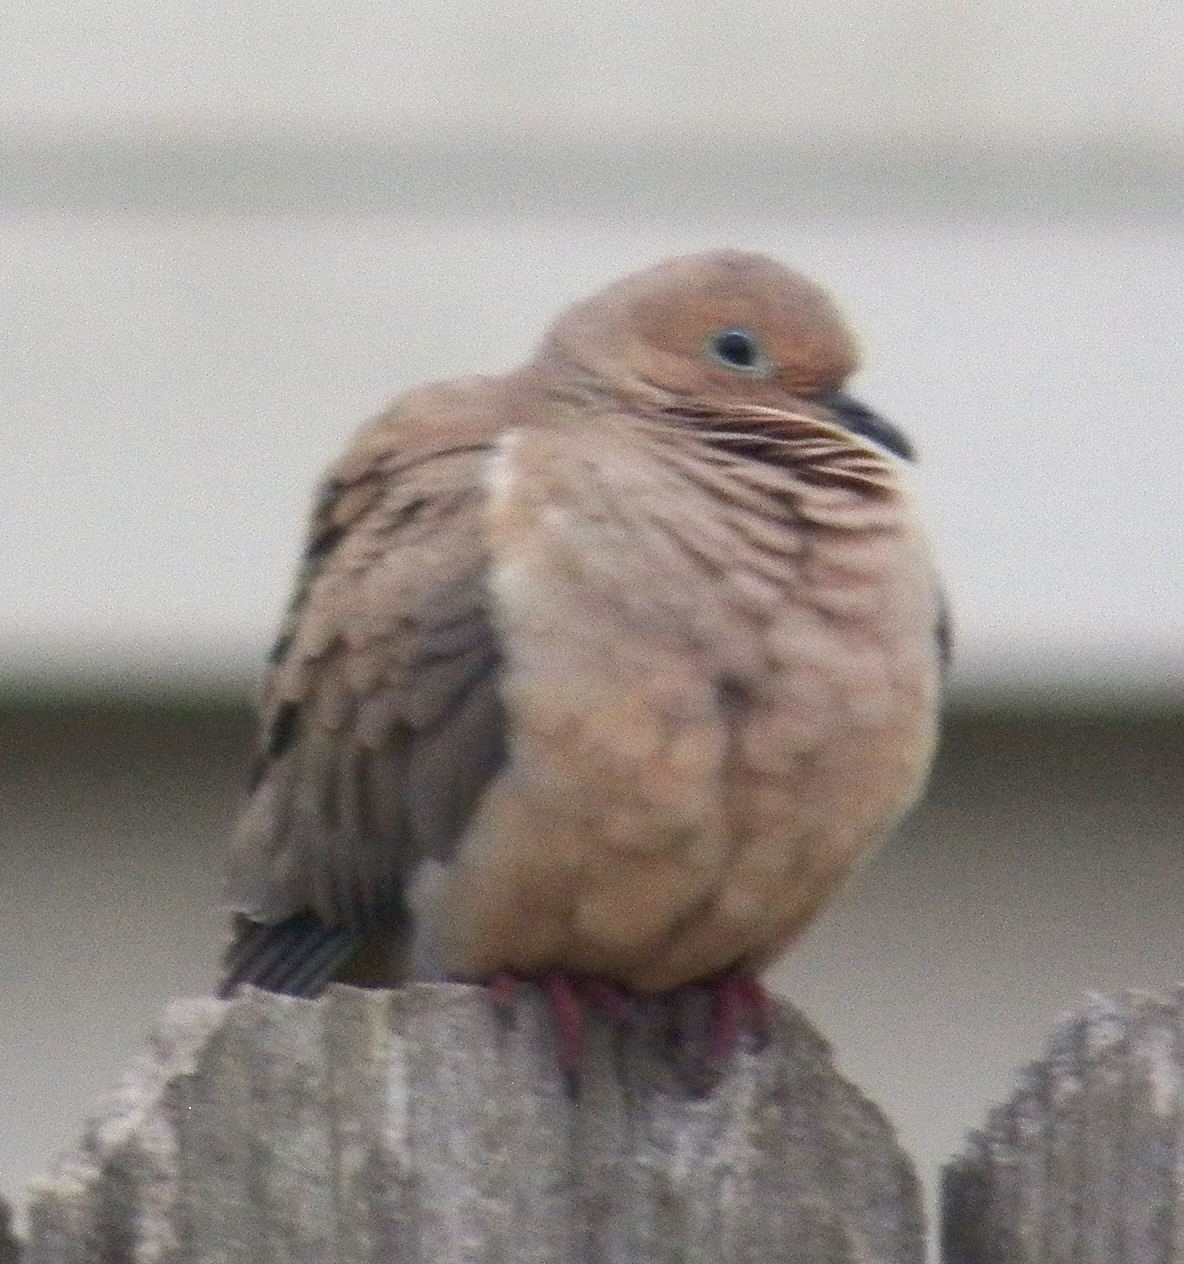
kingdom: Animalia
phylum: Chordata
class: Aves
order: Columbiformes
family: Columbidae
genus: Zenaida
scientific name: Zenaida macroura
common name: Mourning dove
